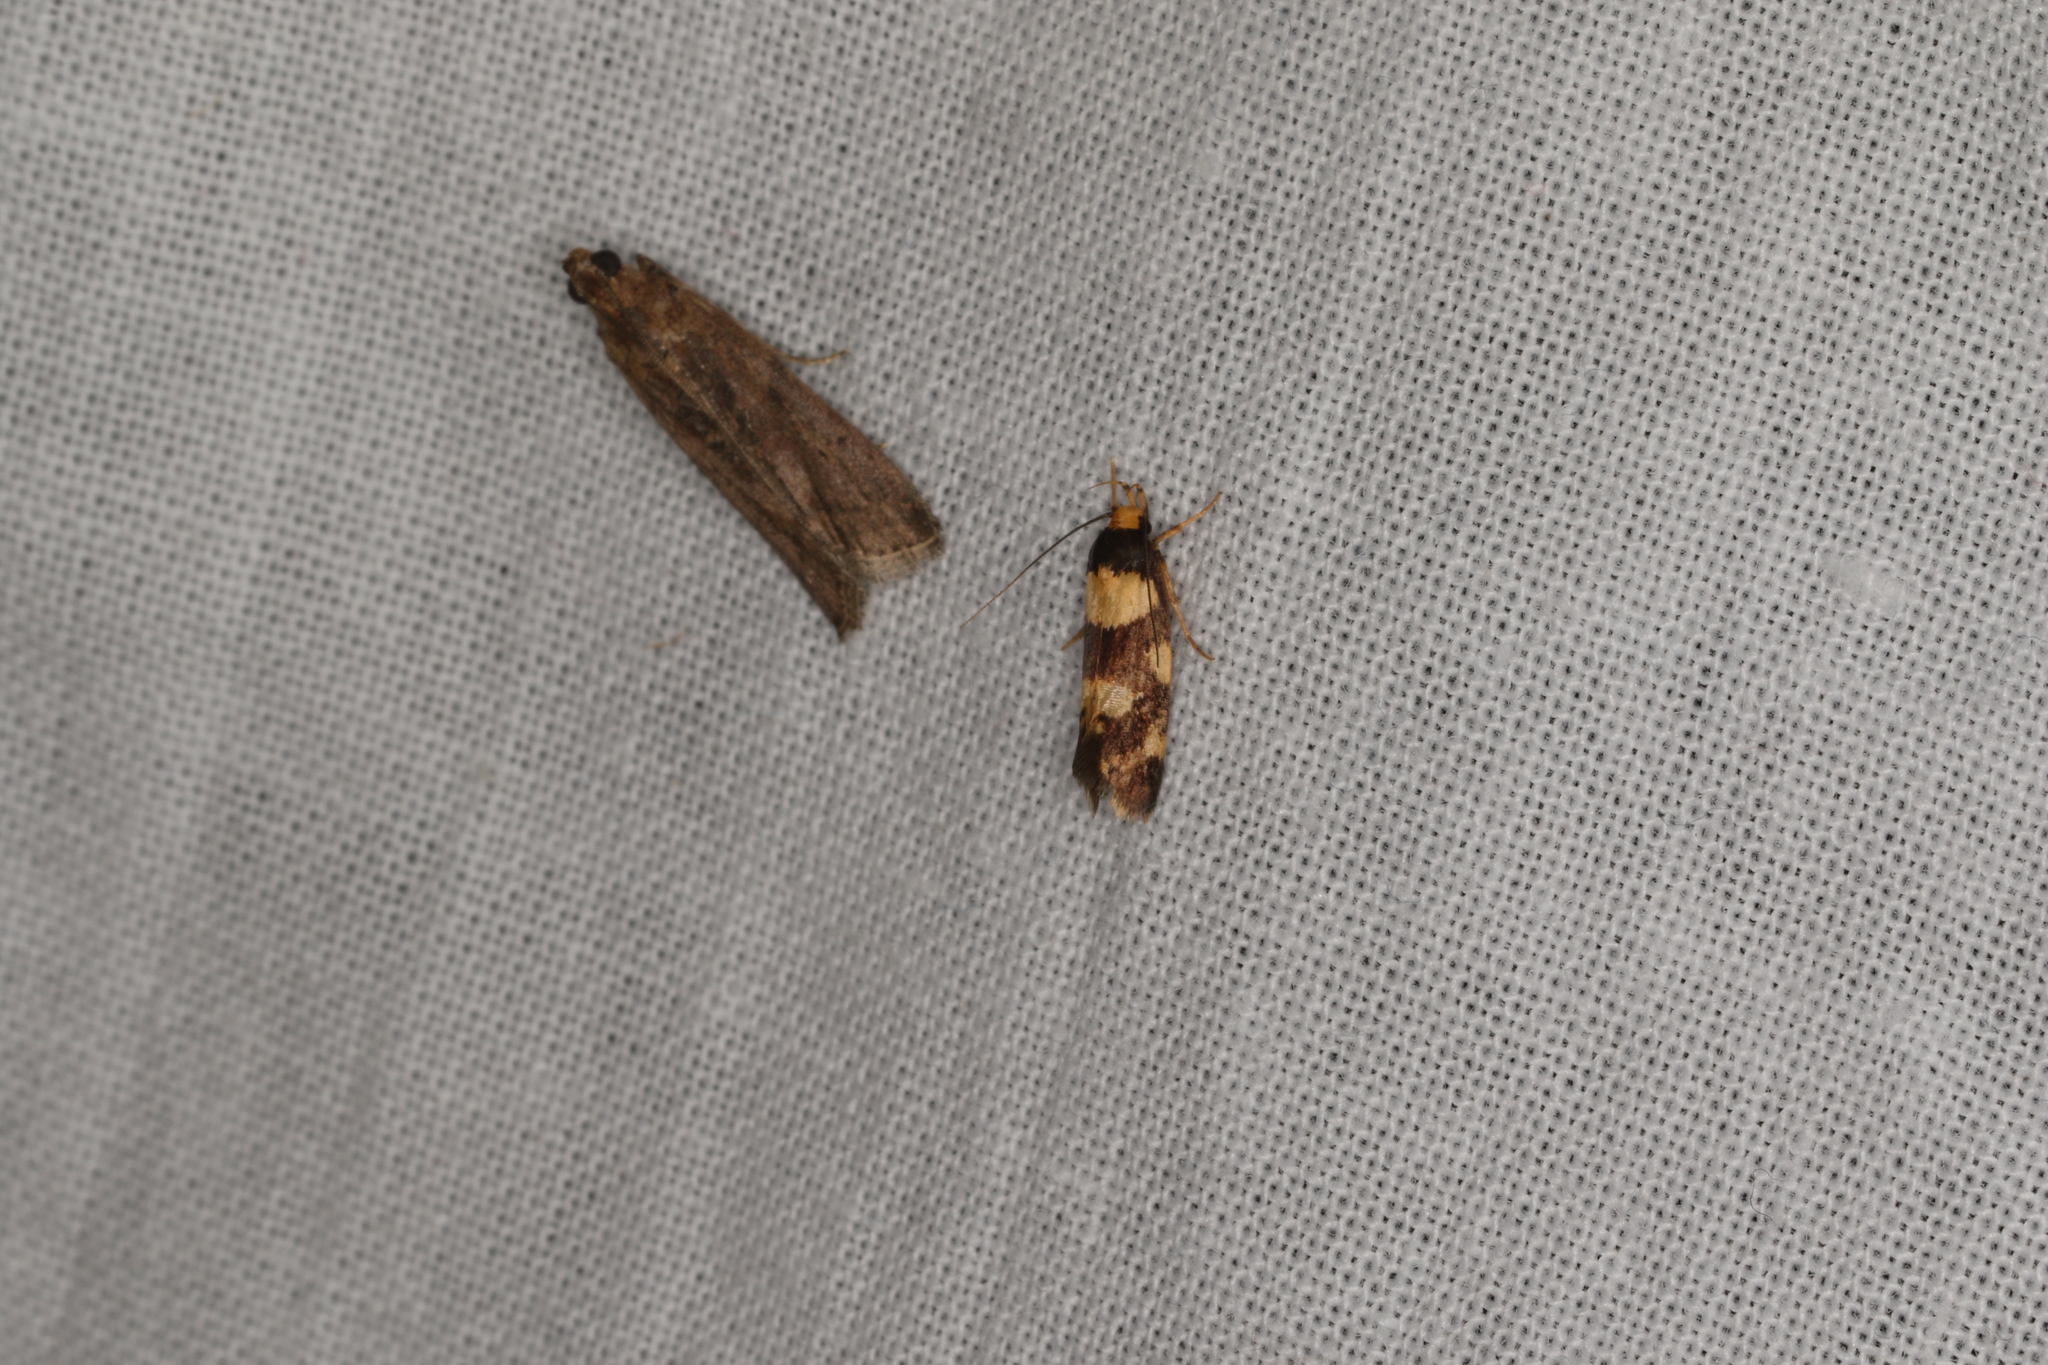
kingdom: Animalia
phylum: Arthropoda
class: Insecta
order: Lepidoptera
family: Oecophoridae
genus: Eulechria
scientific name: Eulechria isozona
